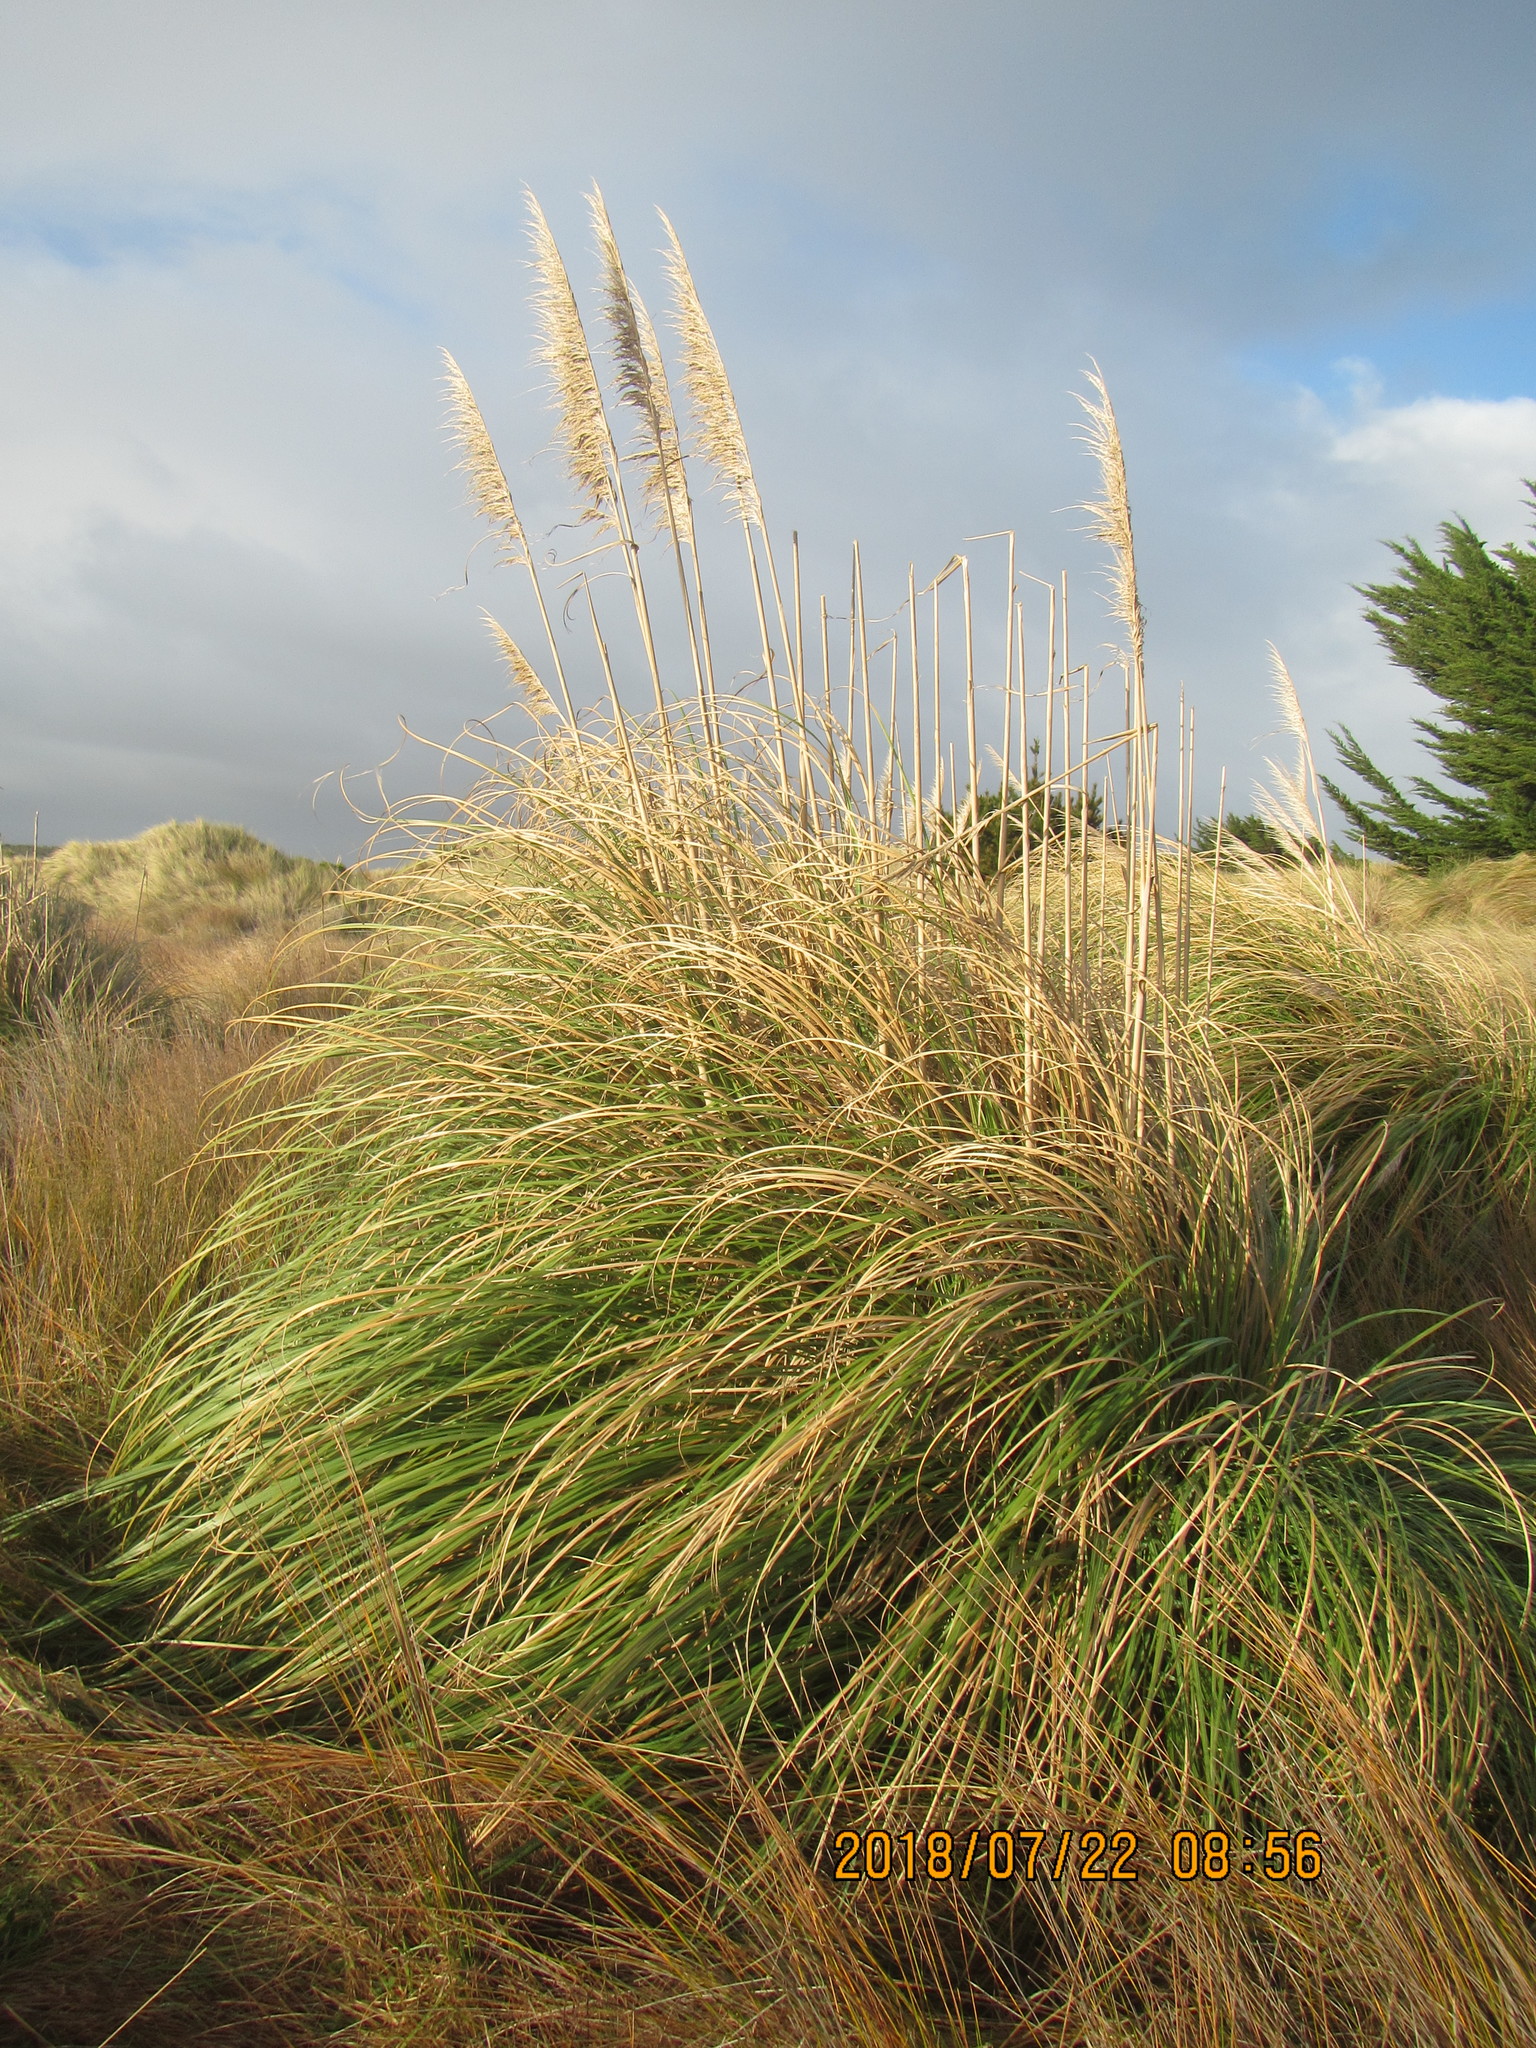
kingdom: Plantae
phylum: Tracheophyta
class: Liliopsida
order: Poales
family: Poaceae
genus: Cortaderia
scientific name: Cortaderia selloana
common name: Uruguayan pampas grass
